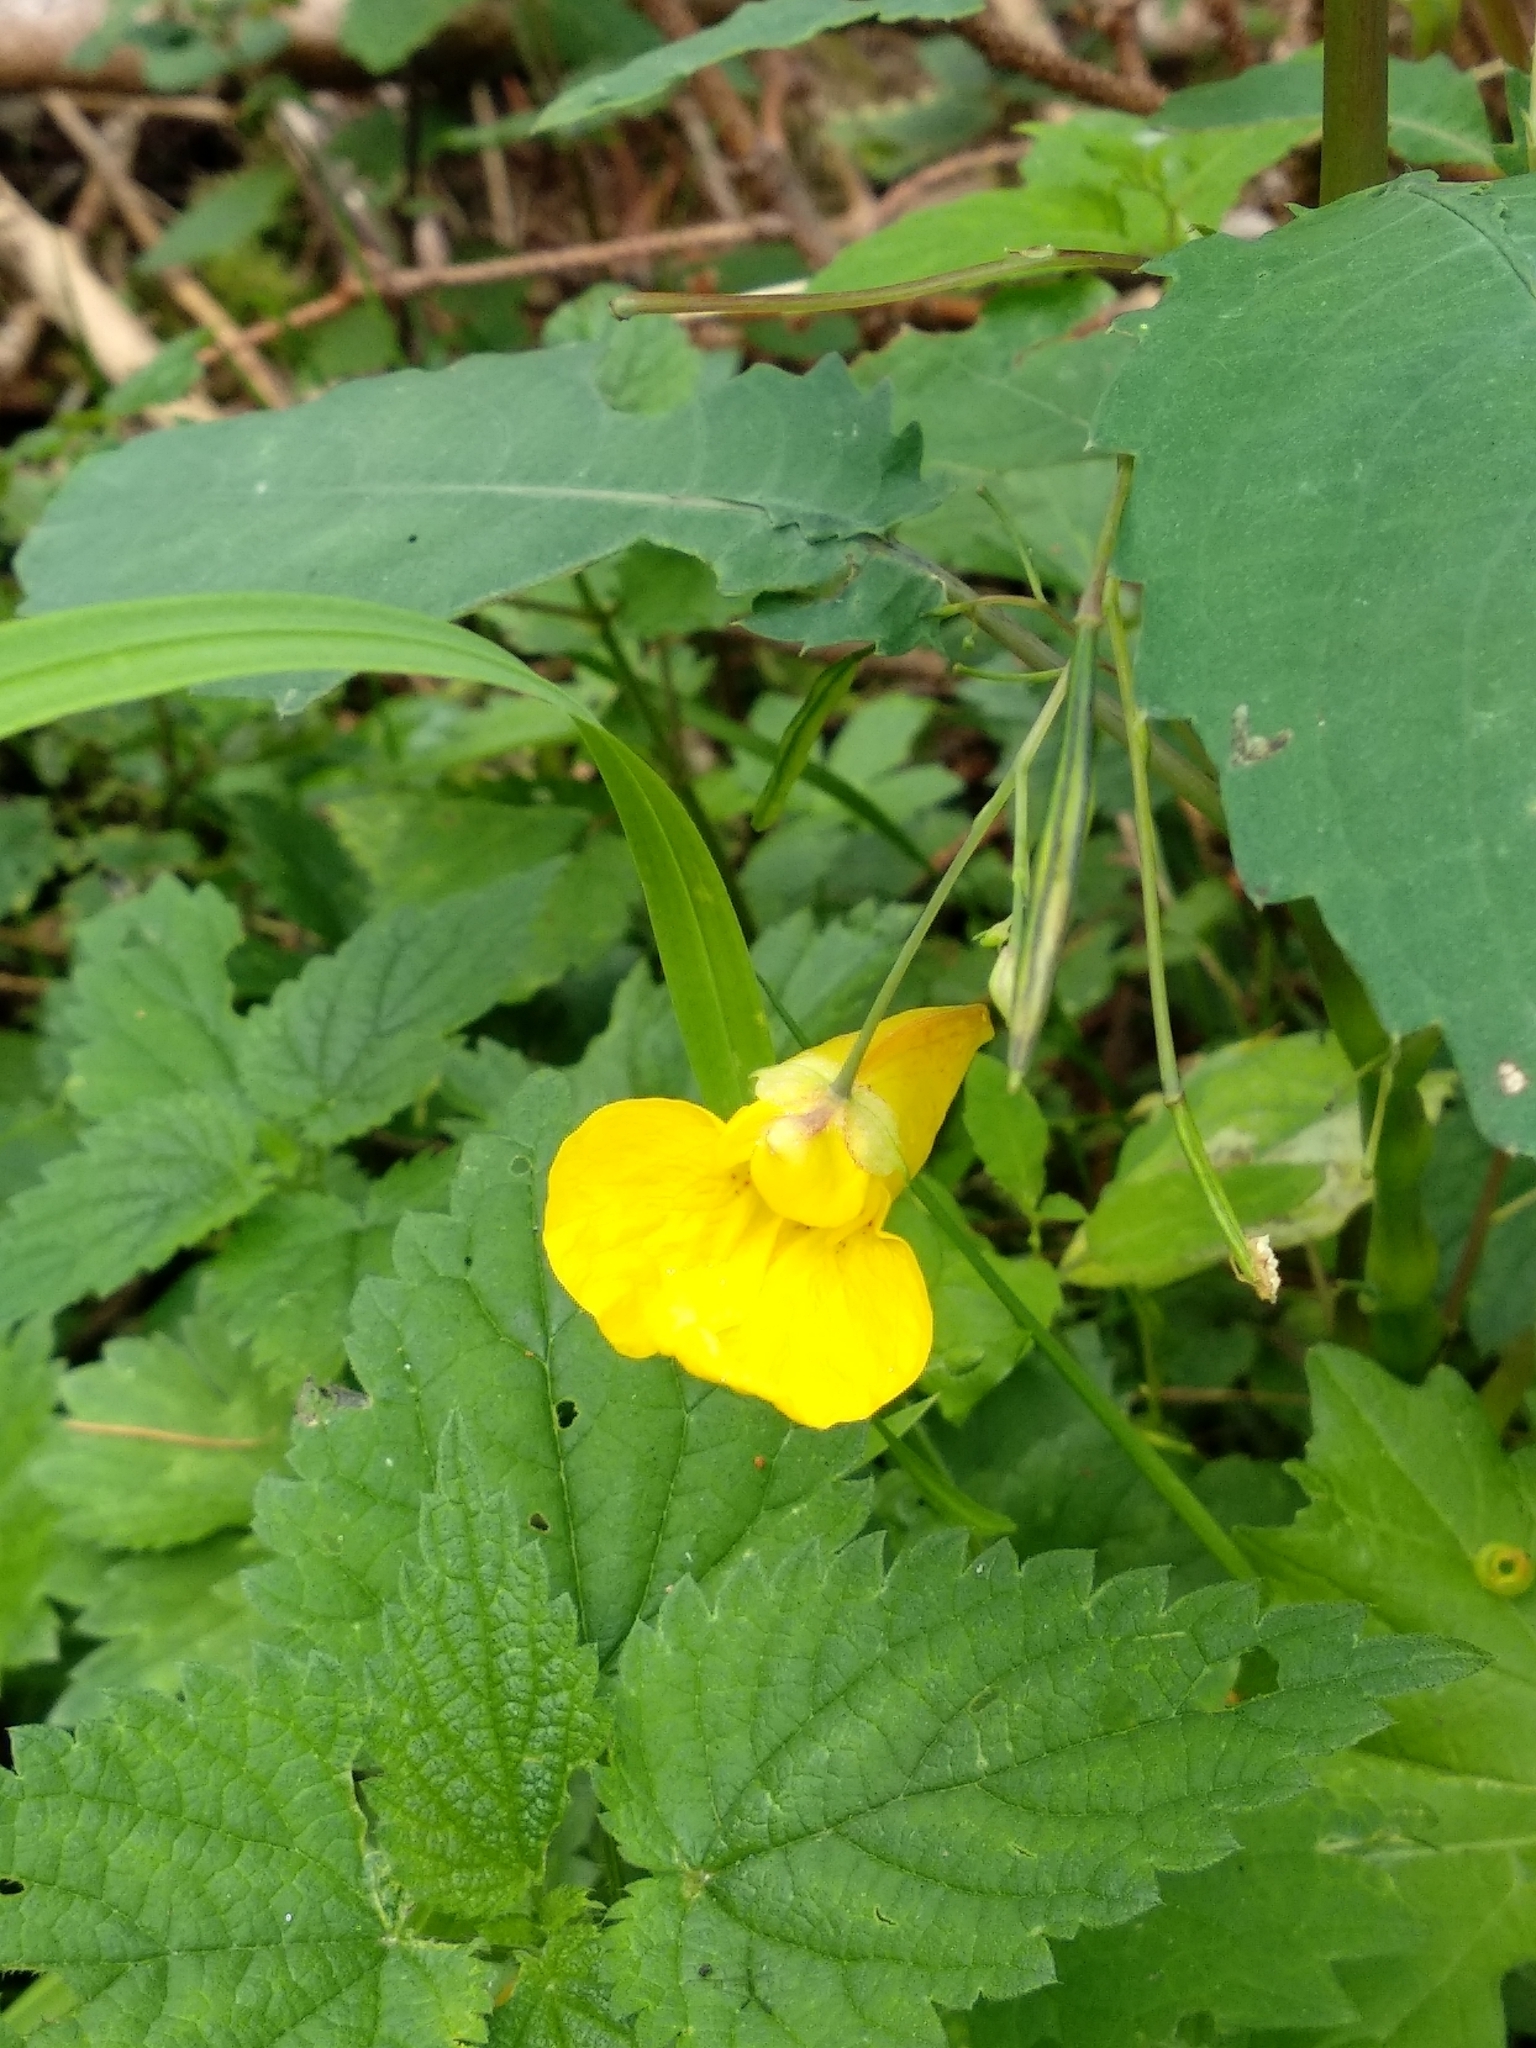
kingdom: Plantae
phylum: Tracheophyta
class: Magnoliopsida
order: Ericales
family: Balsaminaceae
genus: Impatiens
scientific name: Impatiens noli-tangere
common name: Touch-me-not balsam
